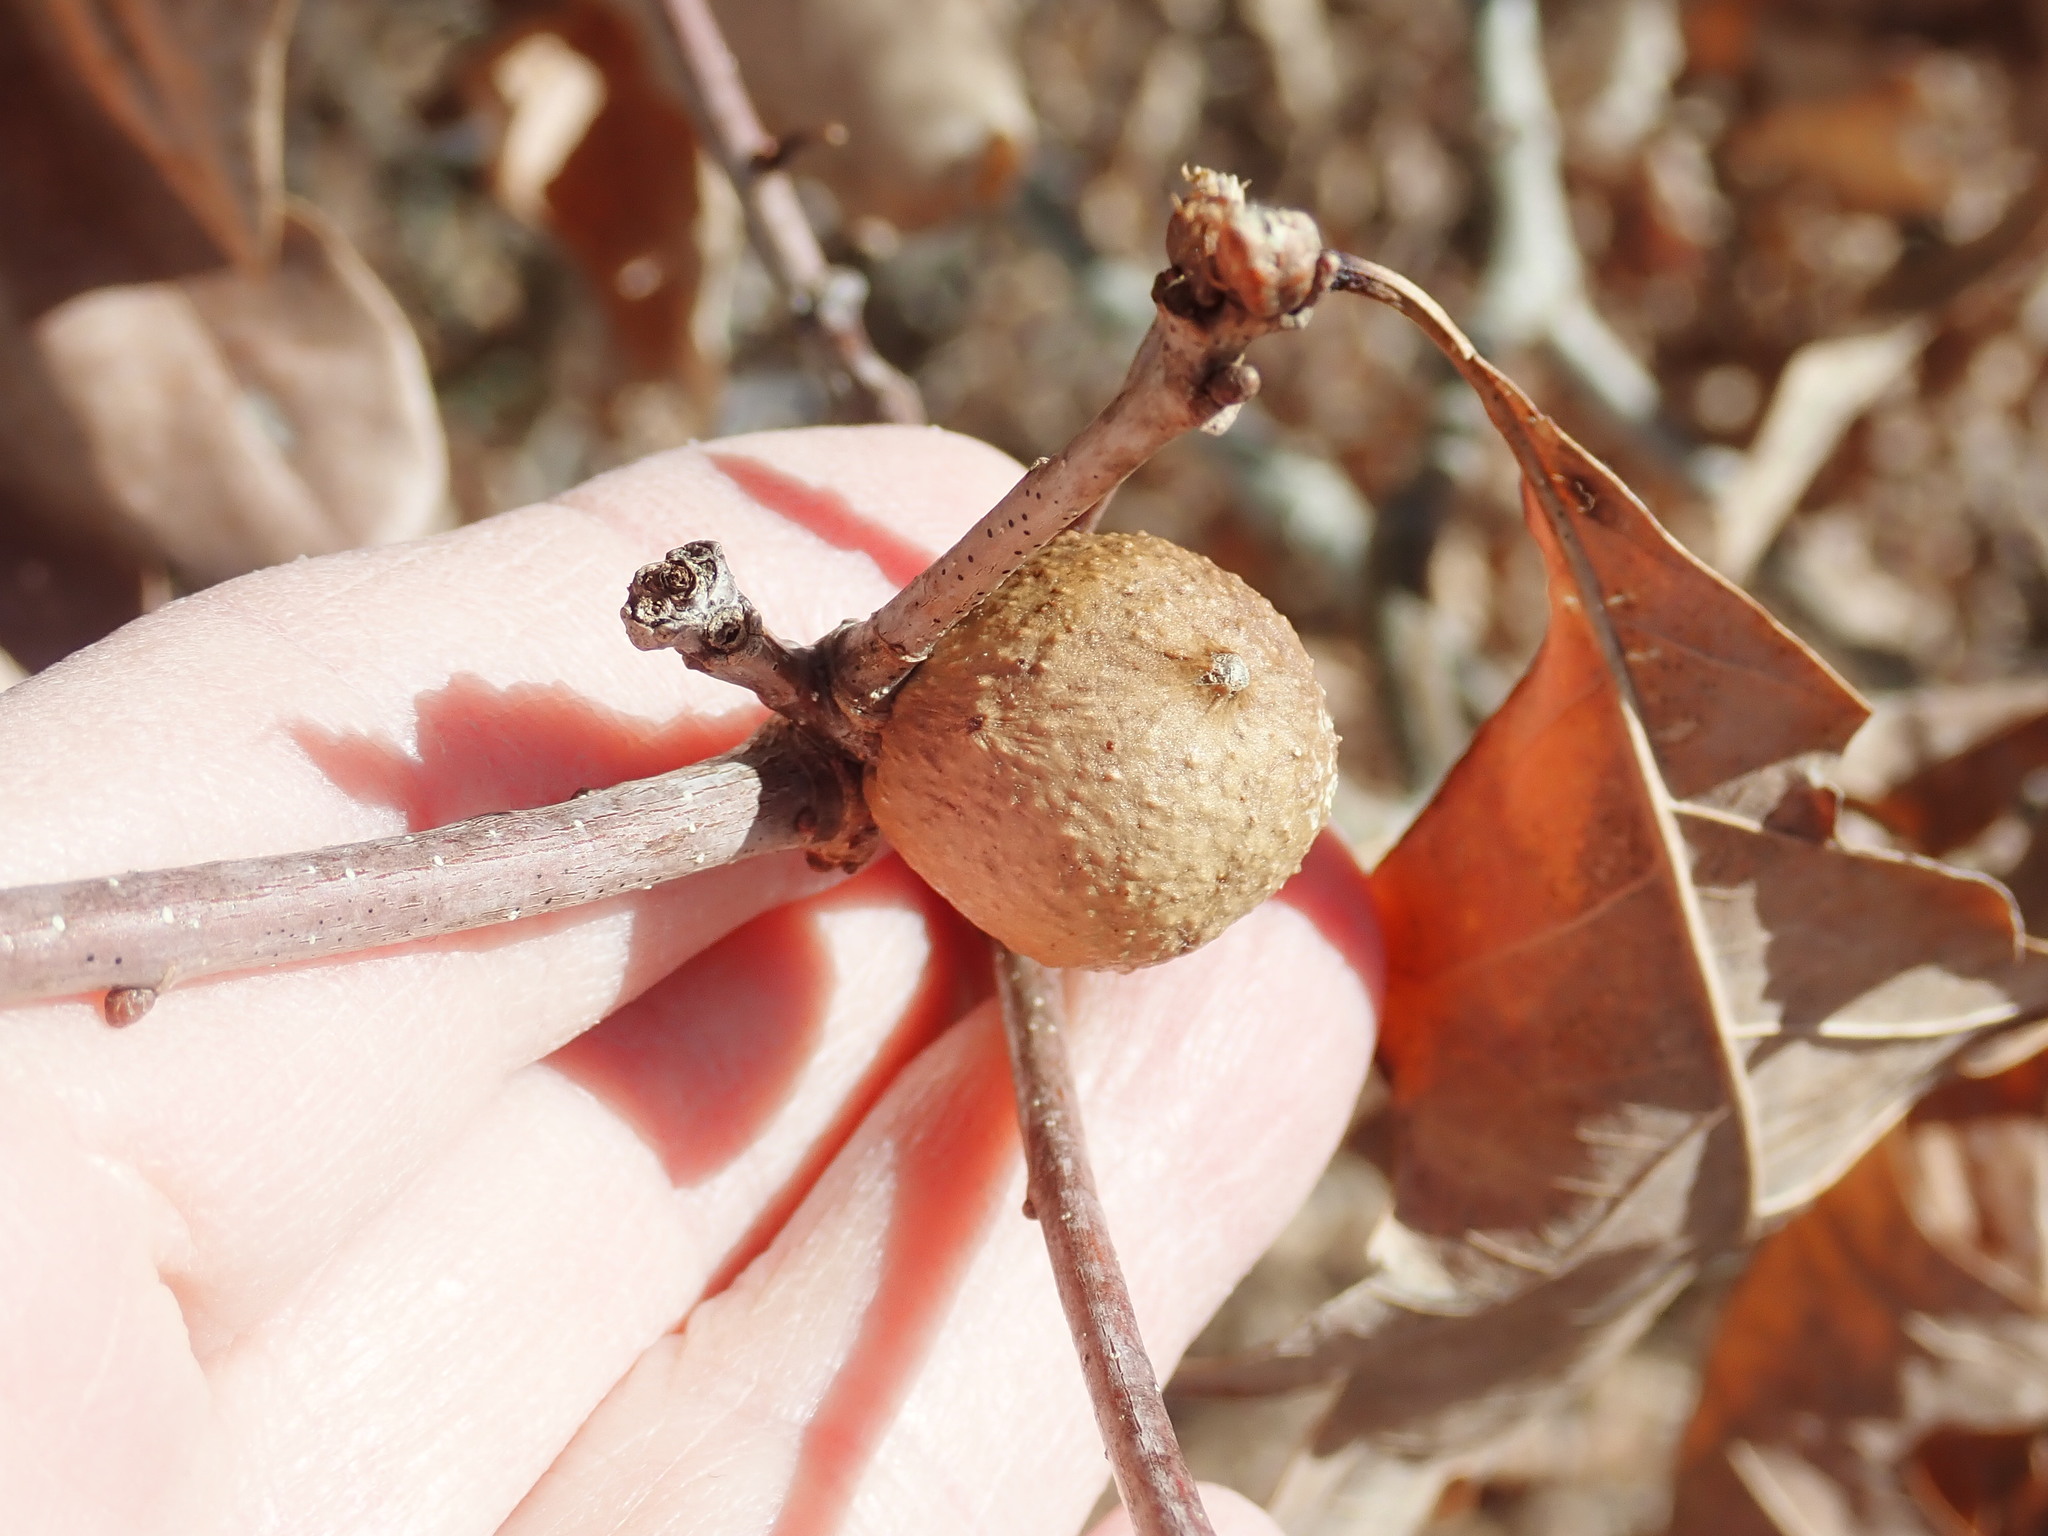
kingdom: Animalia
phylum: Arthropoda
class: Insecta
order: Hymenoptera
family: Cynipidae
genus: Disholcaspis
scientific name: Disholcaspis quercusglobulus
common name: Round bullet gall wasp
